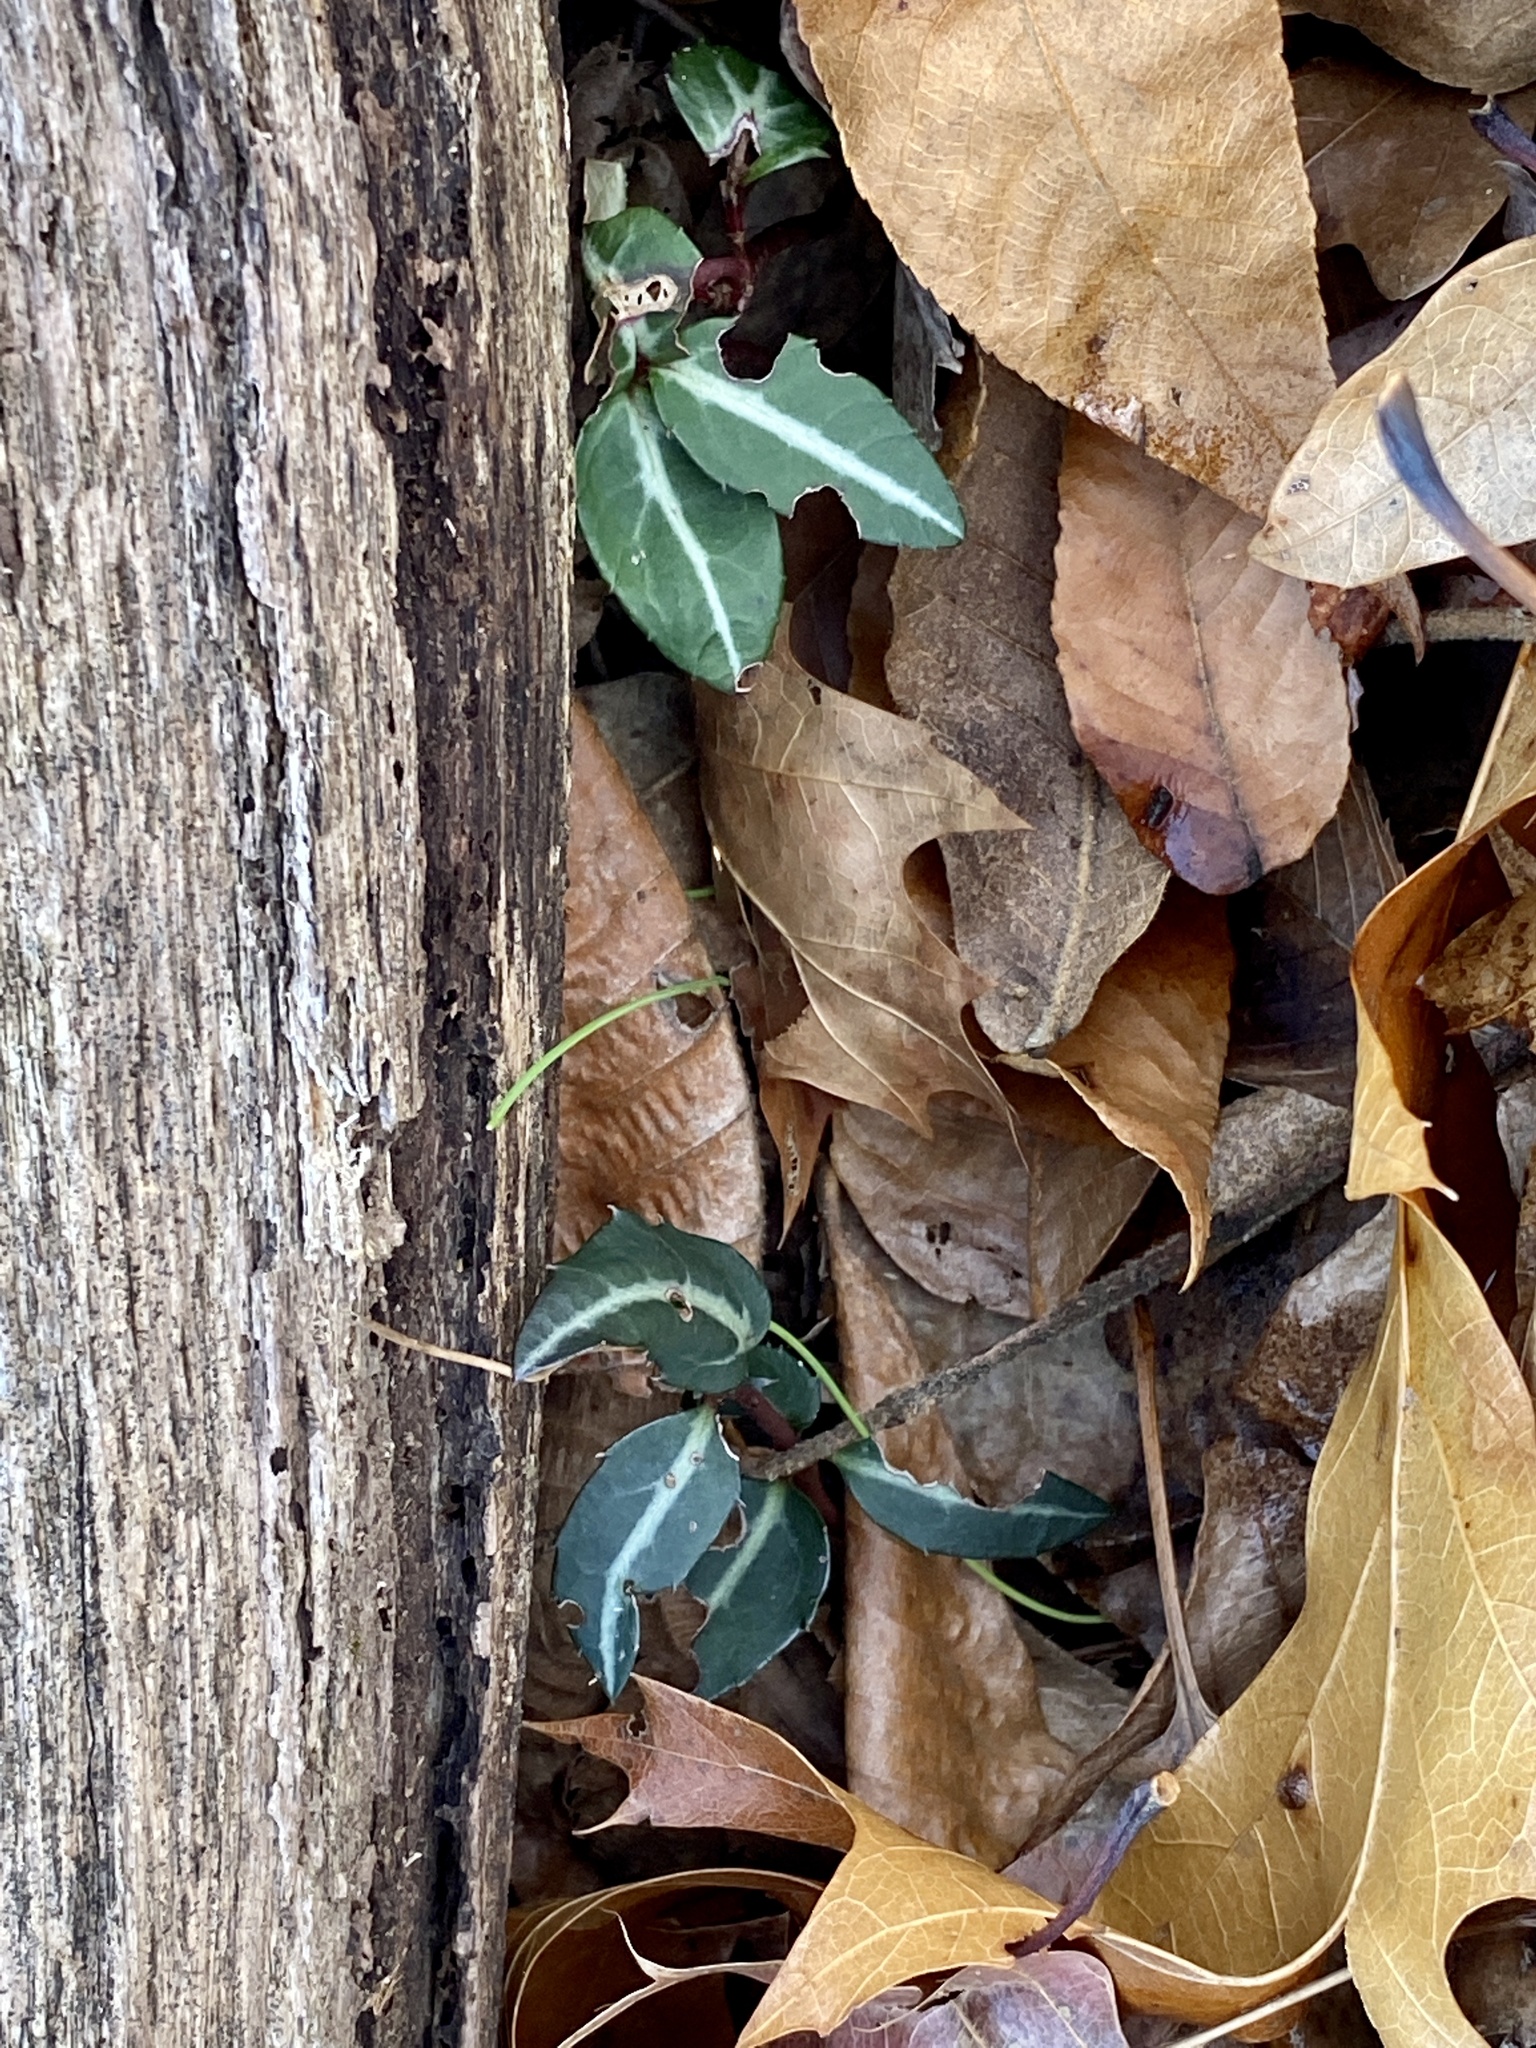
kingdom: Plantae
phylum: Tracheophyta
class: Magnoliopsida
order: Ericales
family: Ericaceae
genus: Chimaphila
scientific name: Chimaphila maculata
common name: Spotted pipsissewa
